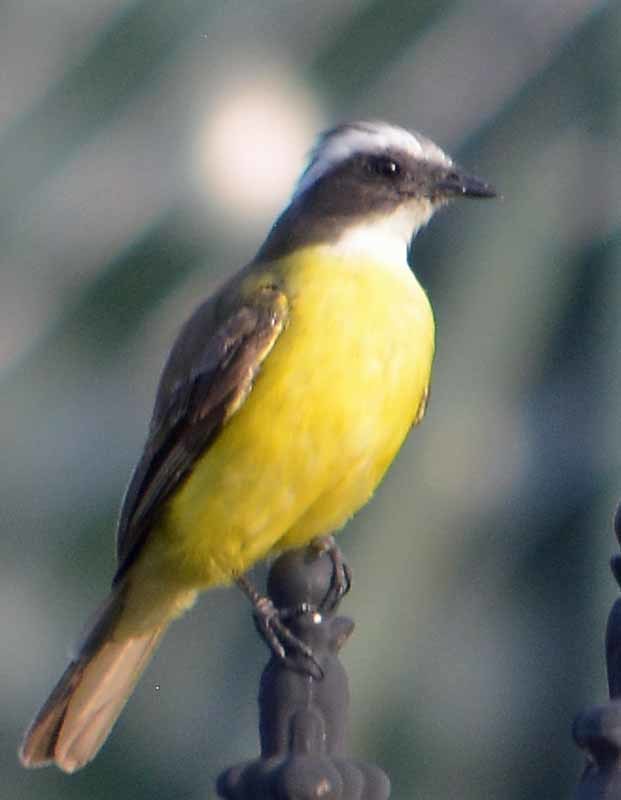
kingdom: Animalia
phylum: Chordata
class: Aves
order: Passeriformes
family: Tyrannidae
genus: Myiozetetes
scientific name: Myiozetetes similis
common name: Social flycatcher
